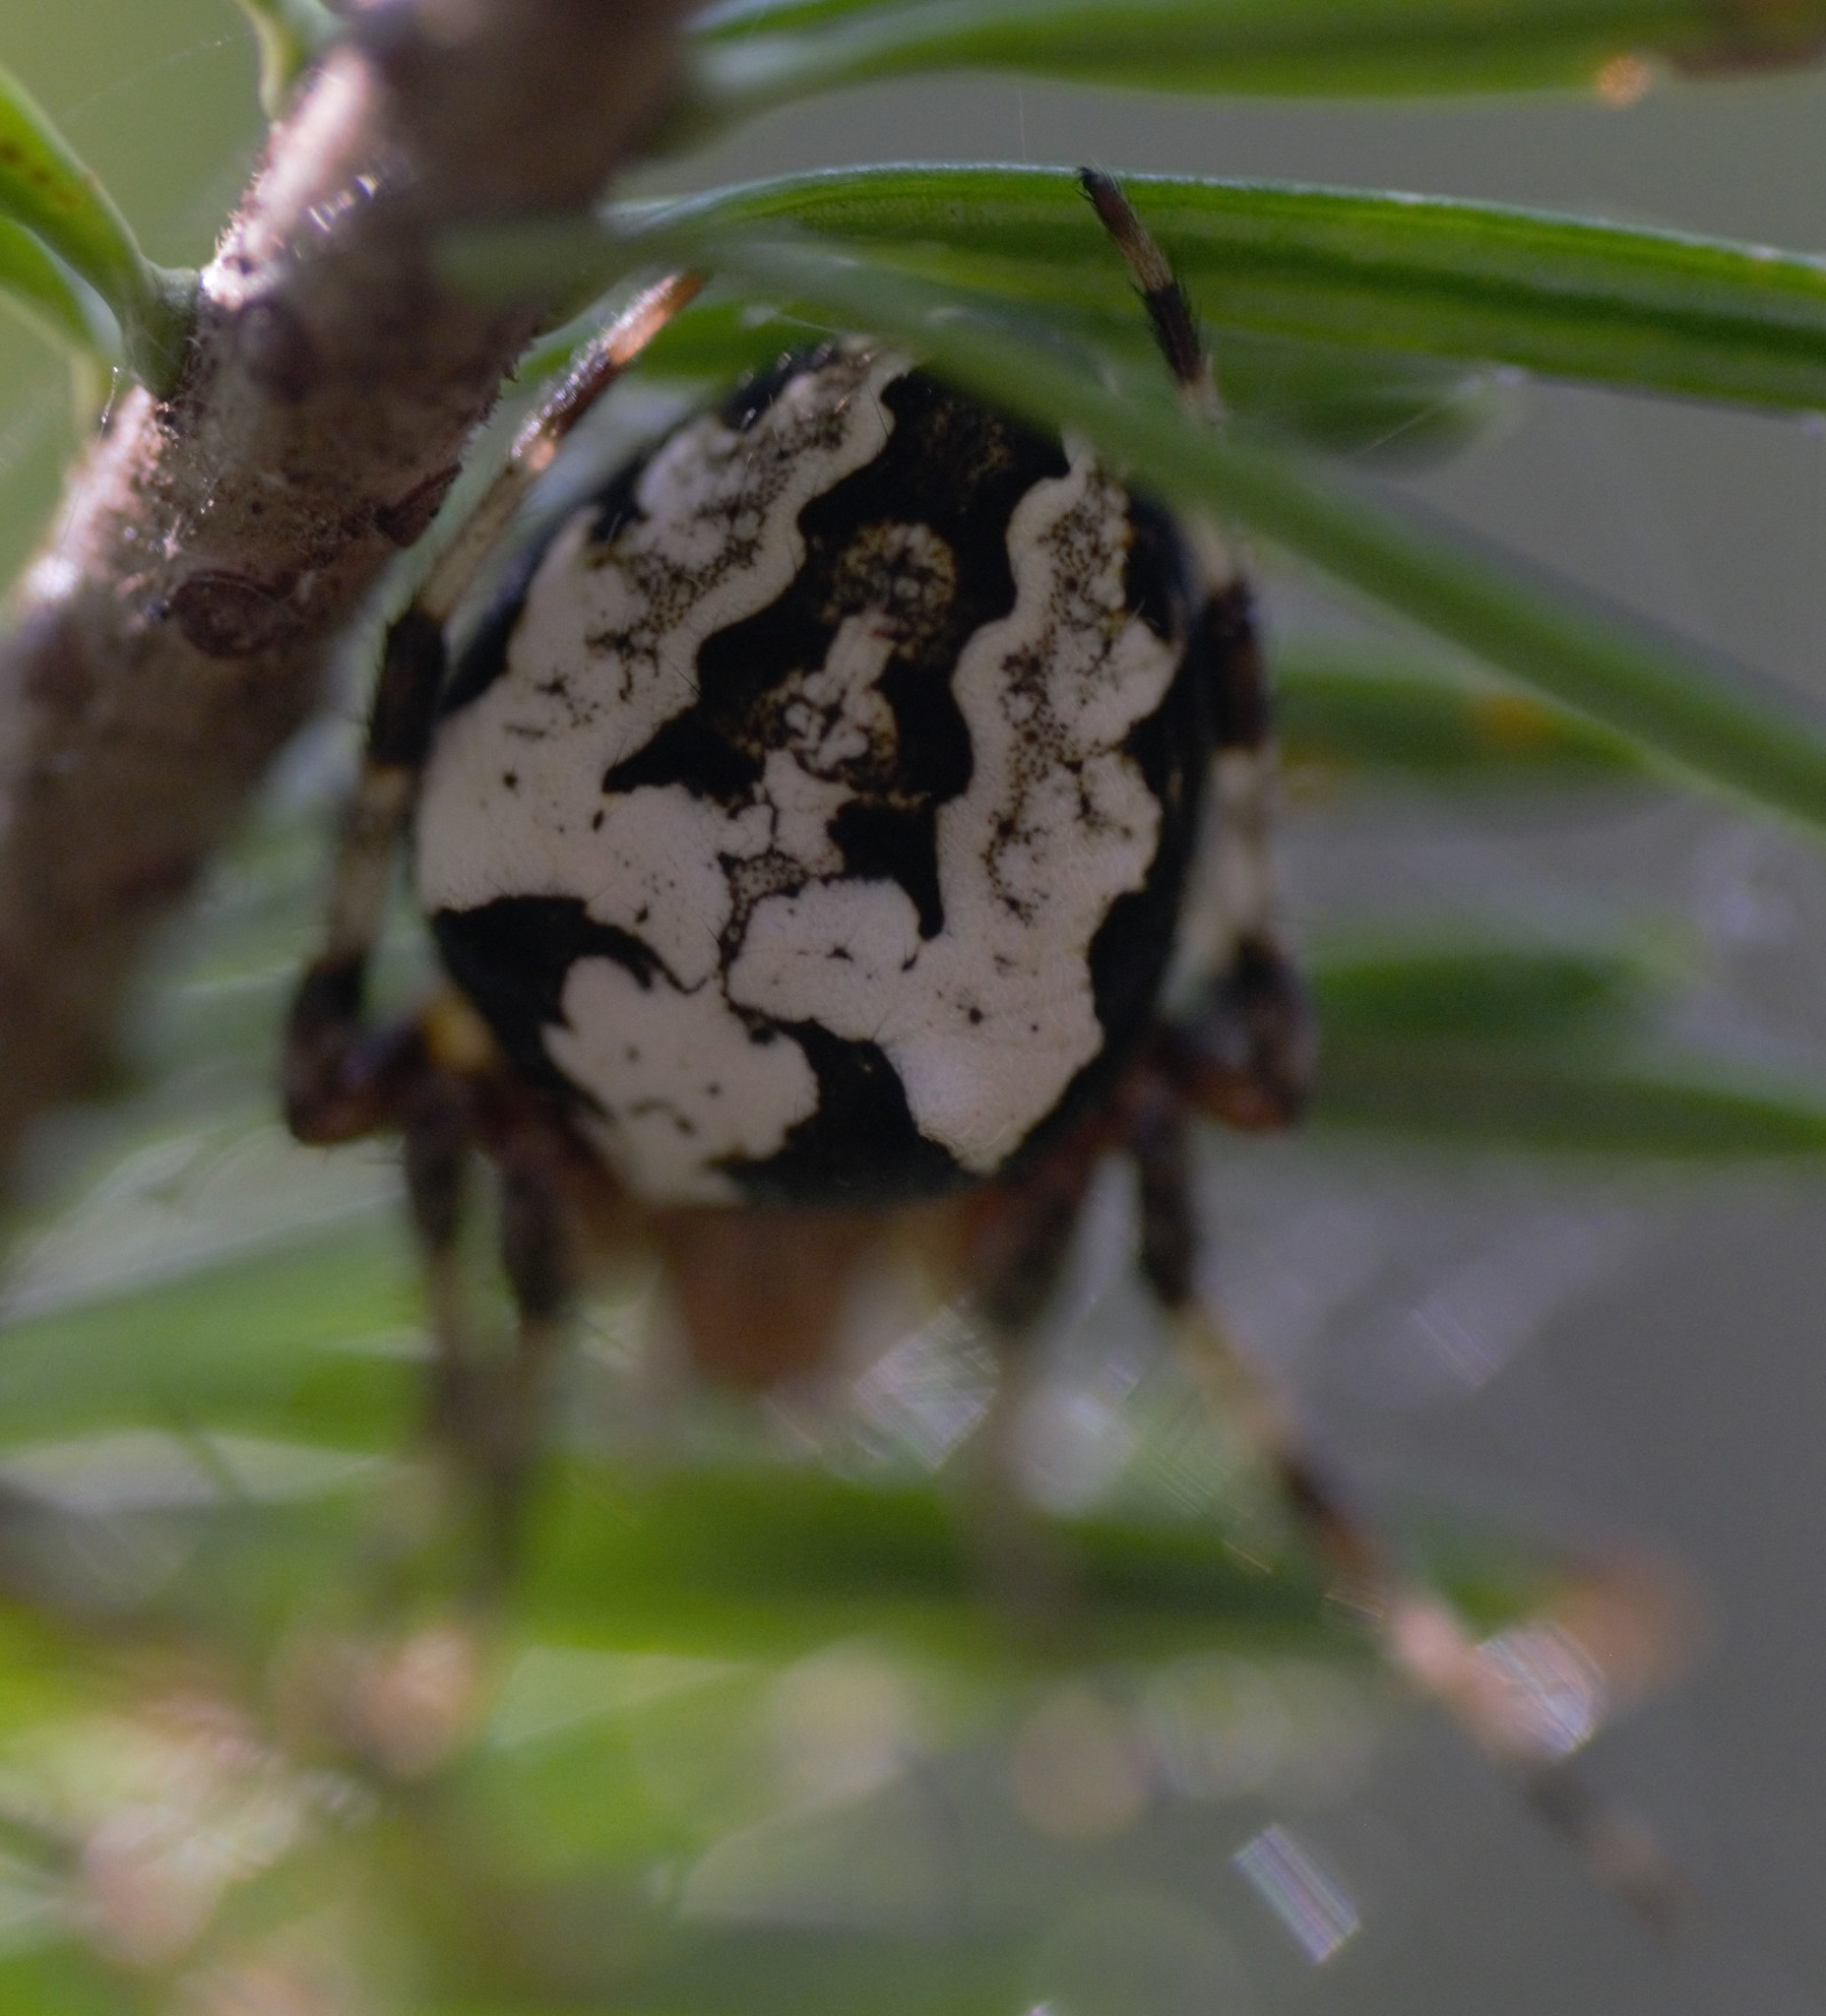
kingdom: Animalia
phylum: Arthropoda
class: Arachnida
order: Araneae
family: Araneidae
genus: Araneus
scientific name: Araneus nordmanni
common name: Nordmann's orbweaver
